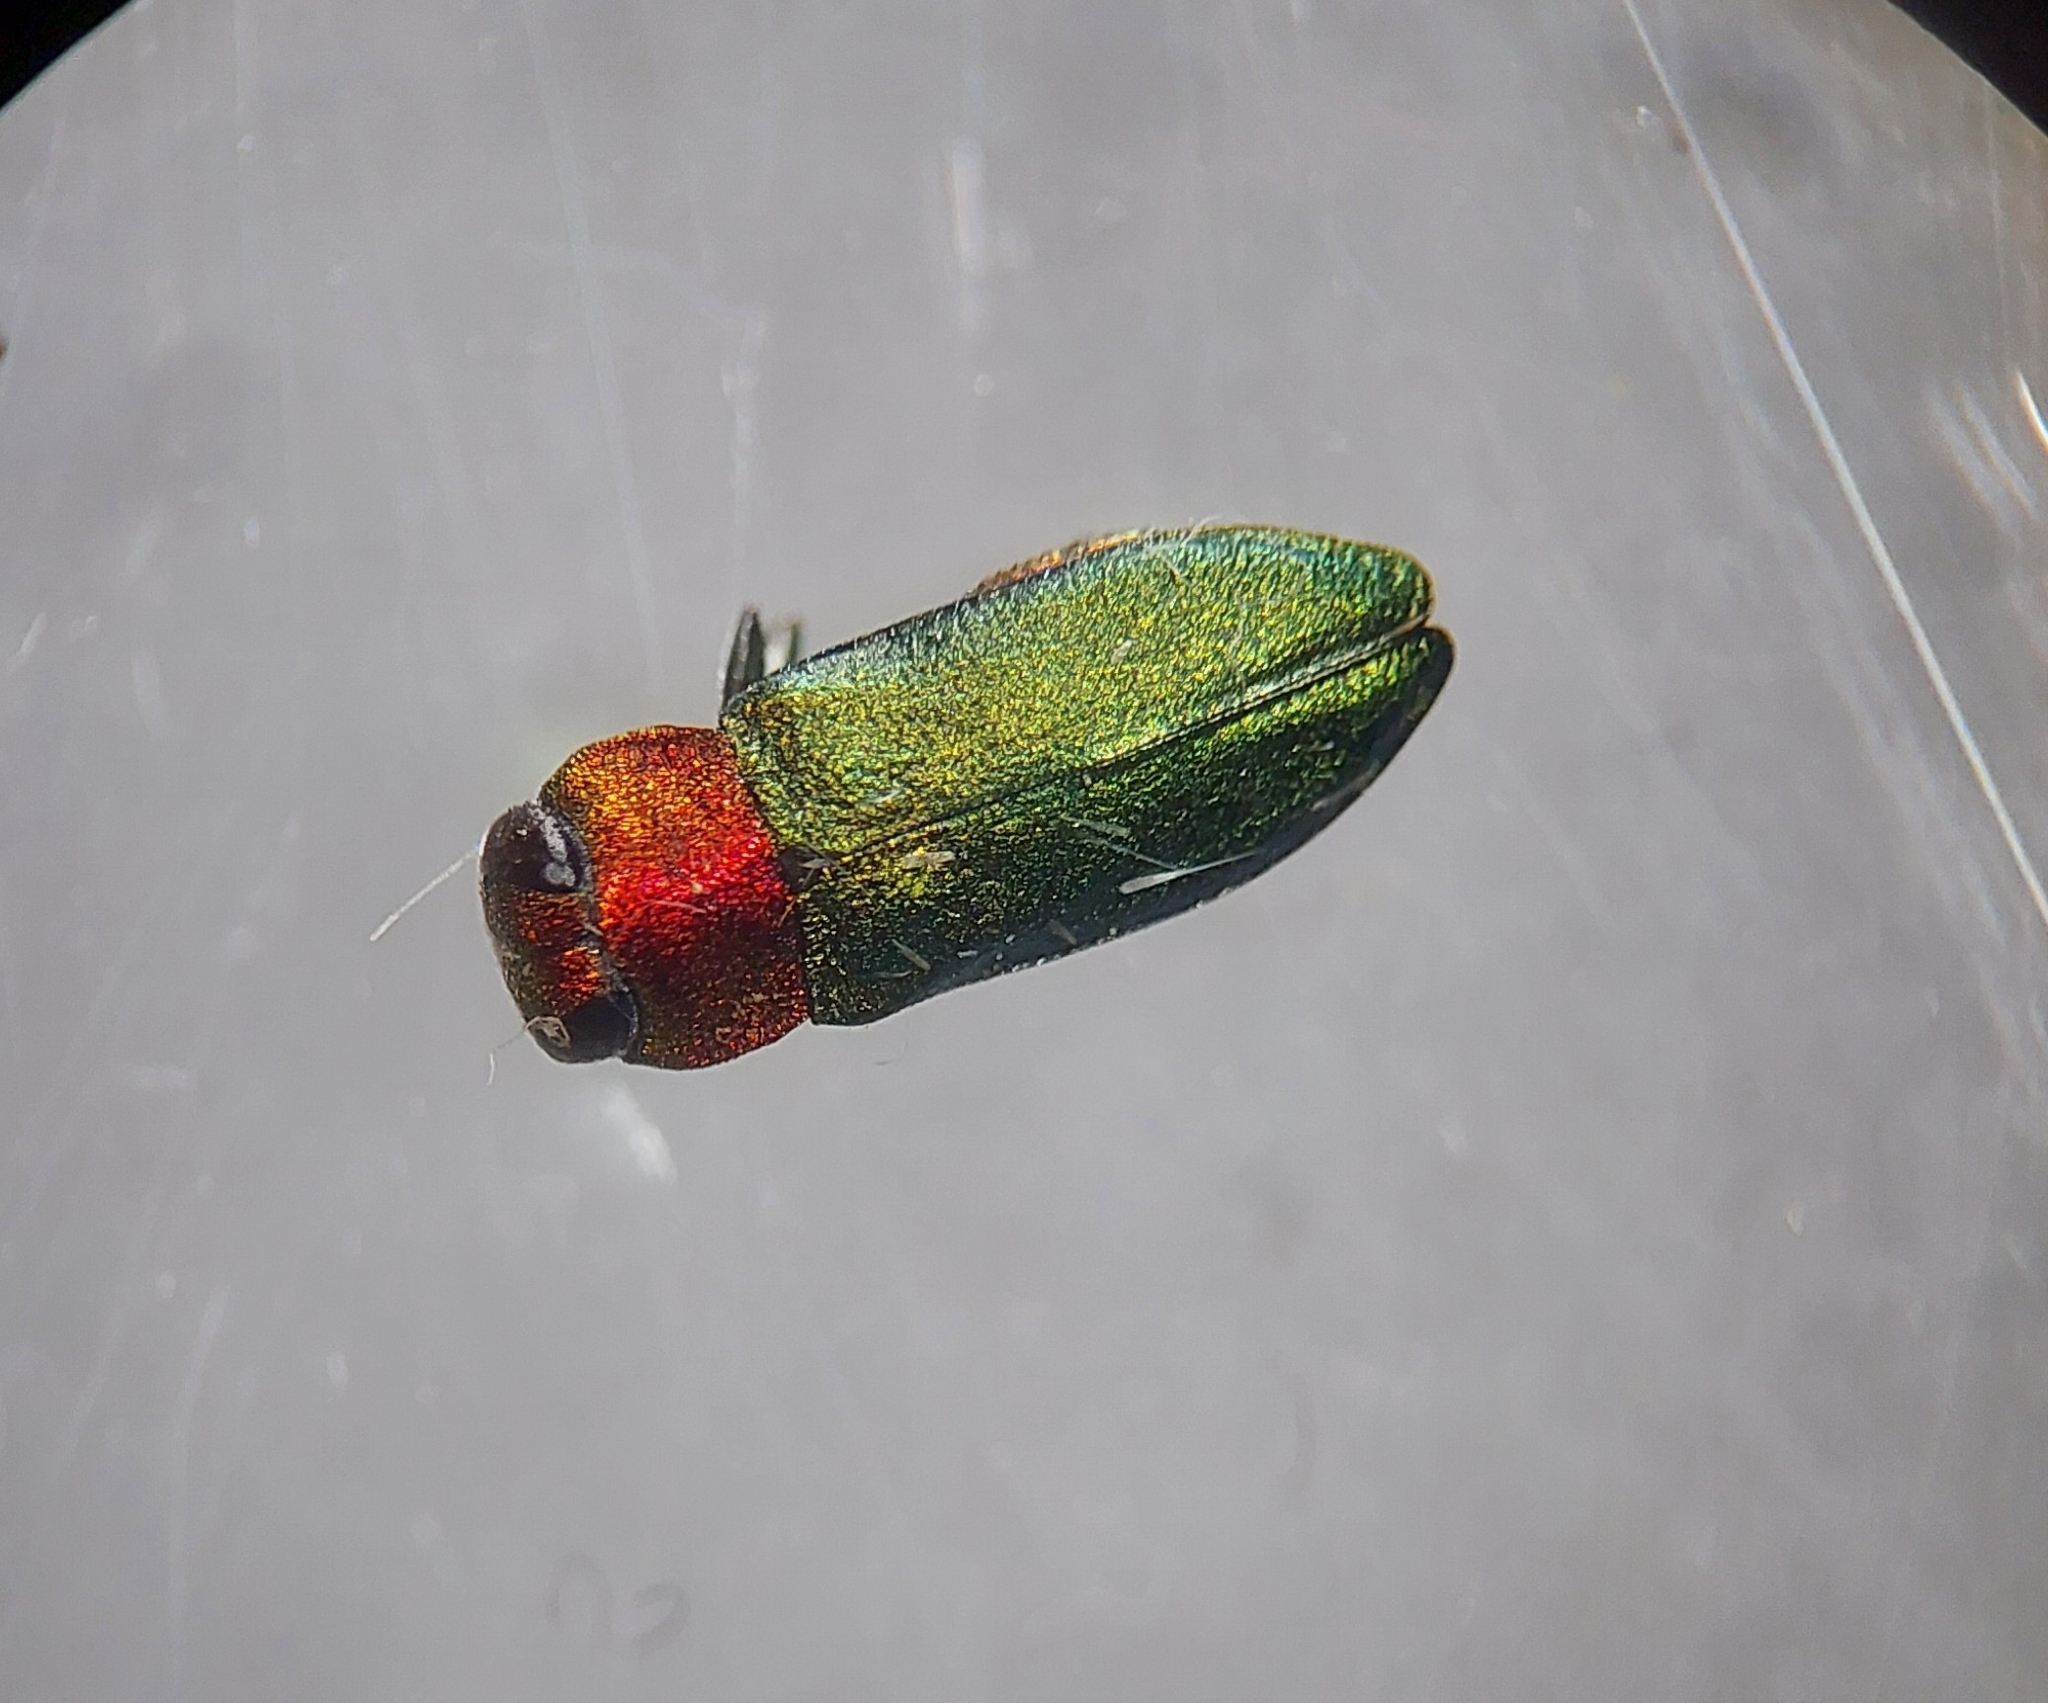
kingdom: Animalia
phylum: Arthropoda
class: Insecta
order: Coleoptera
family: Buprestidae
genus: Anthaxia
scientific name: Anthaxia nitidula
